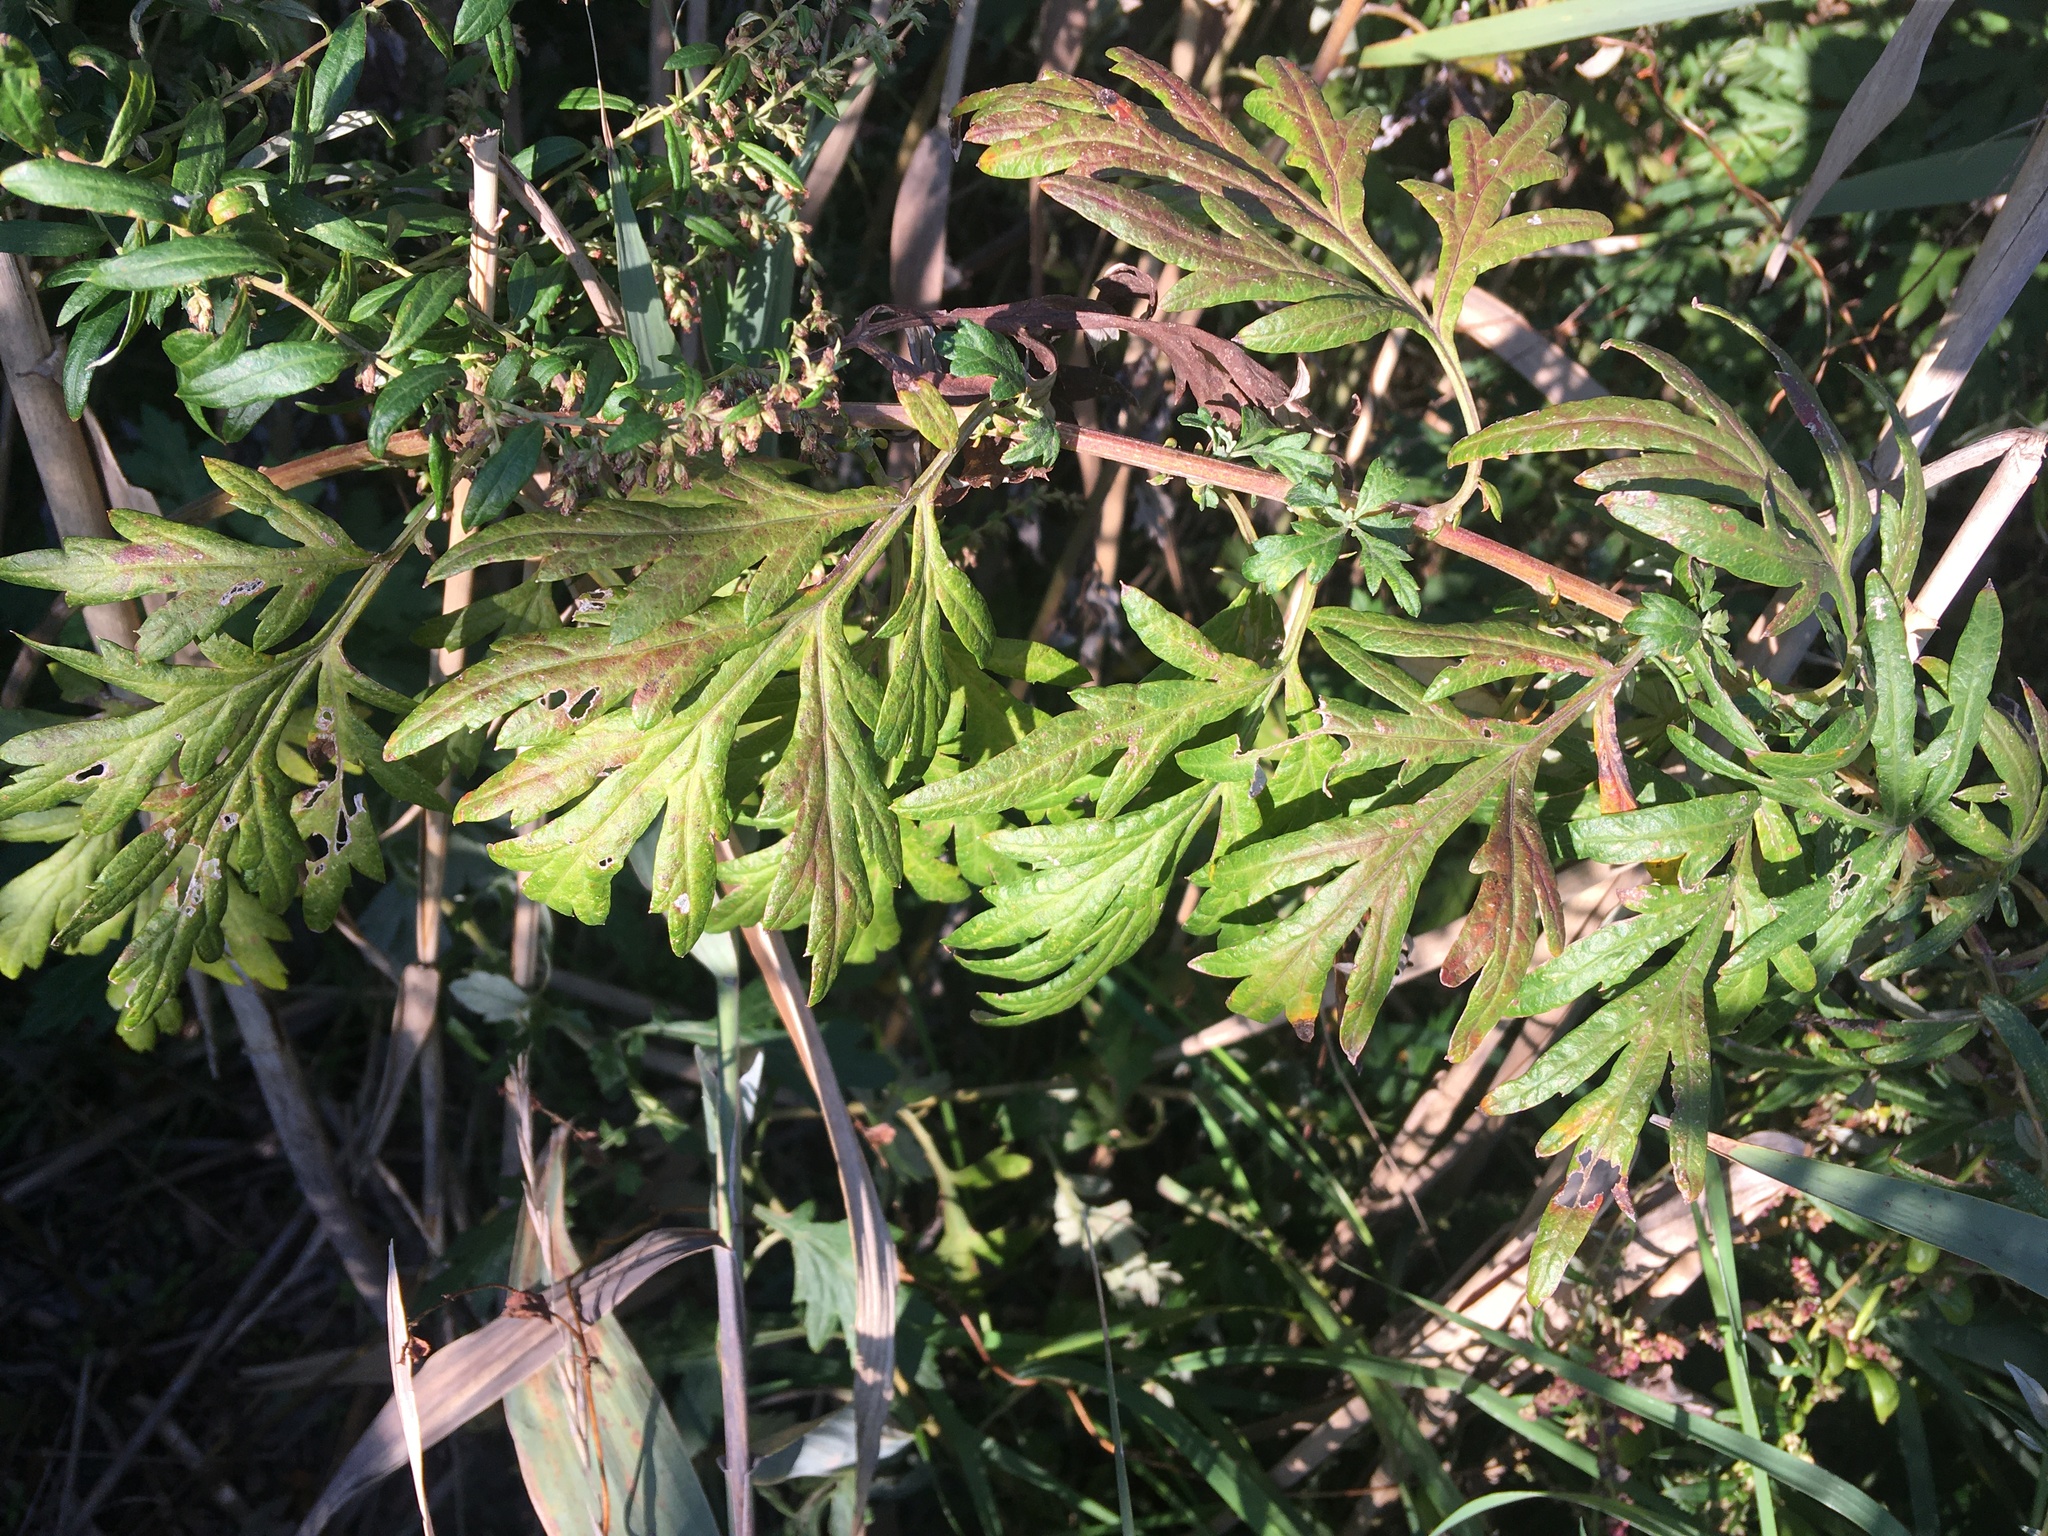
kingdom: Plantae
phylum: Tracheophyta
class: Magnoliopsida
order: Asterales
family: Asteraceae
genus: Artemisia
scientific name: Artemisia vulgaris
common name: Mugwort
